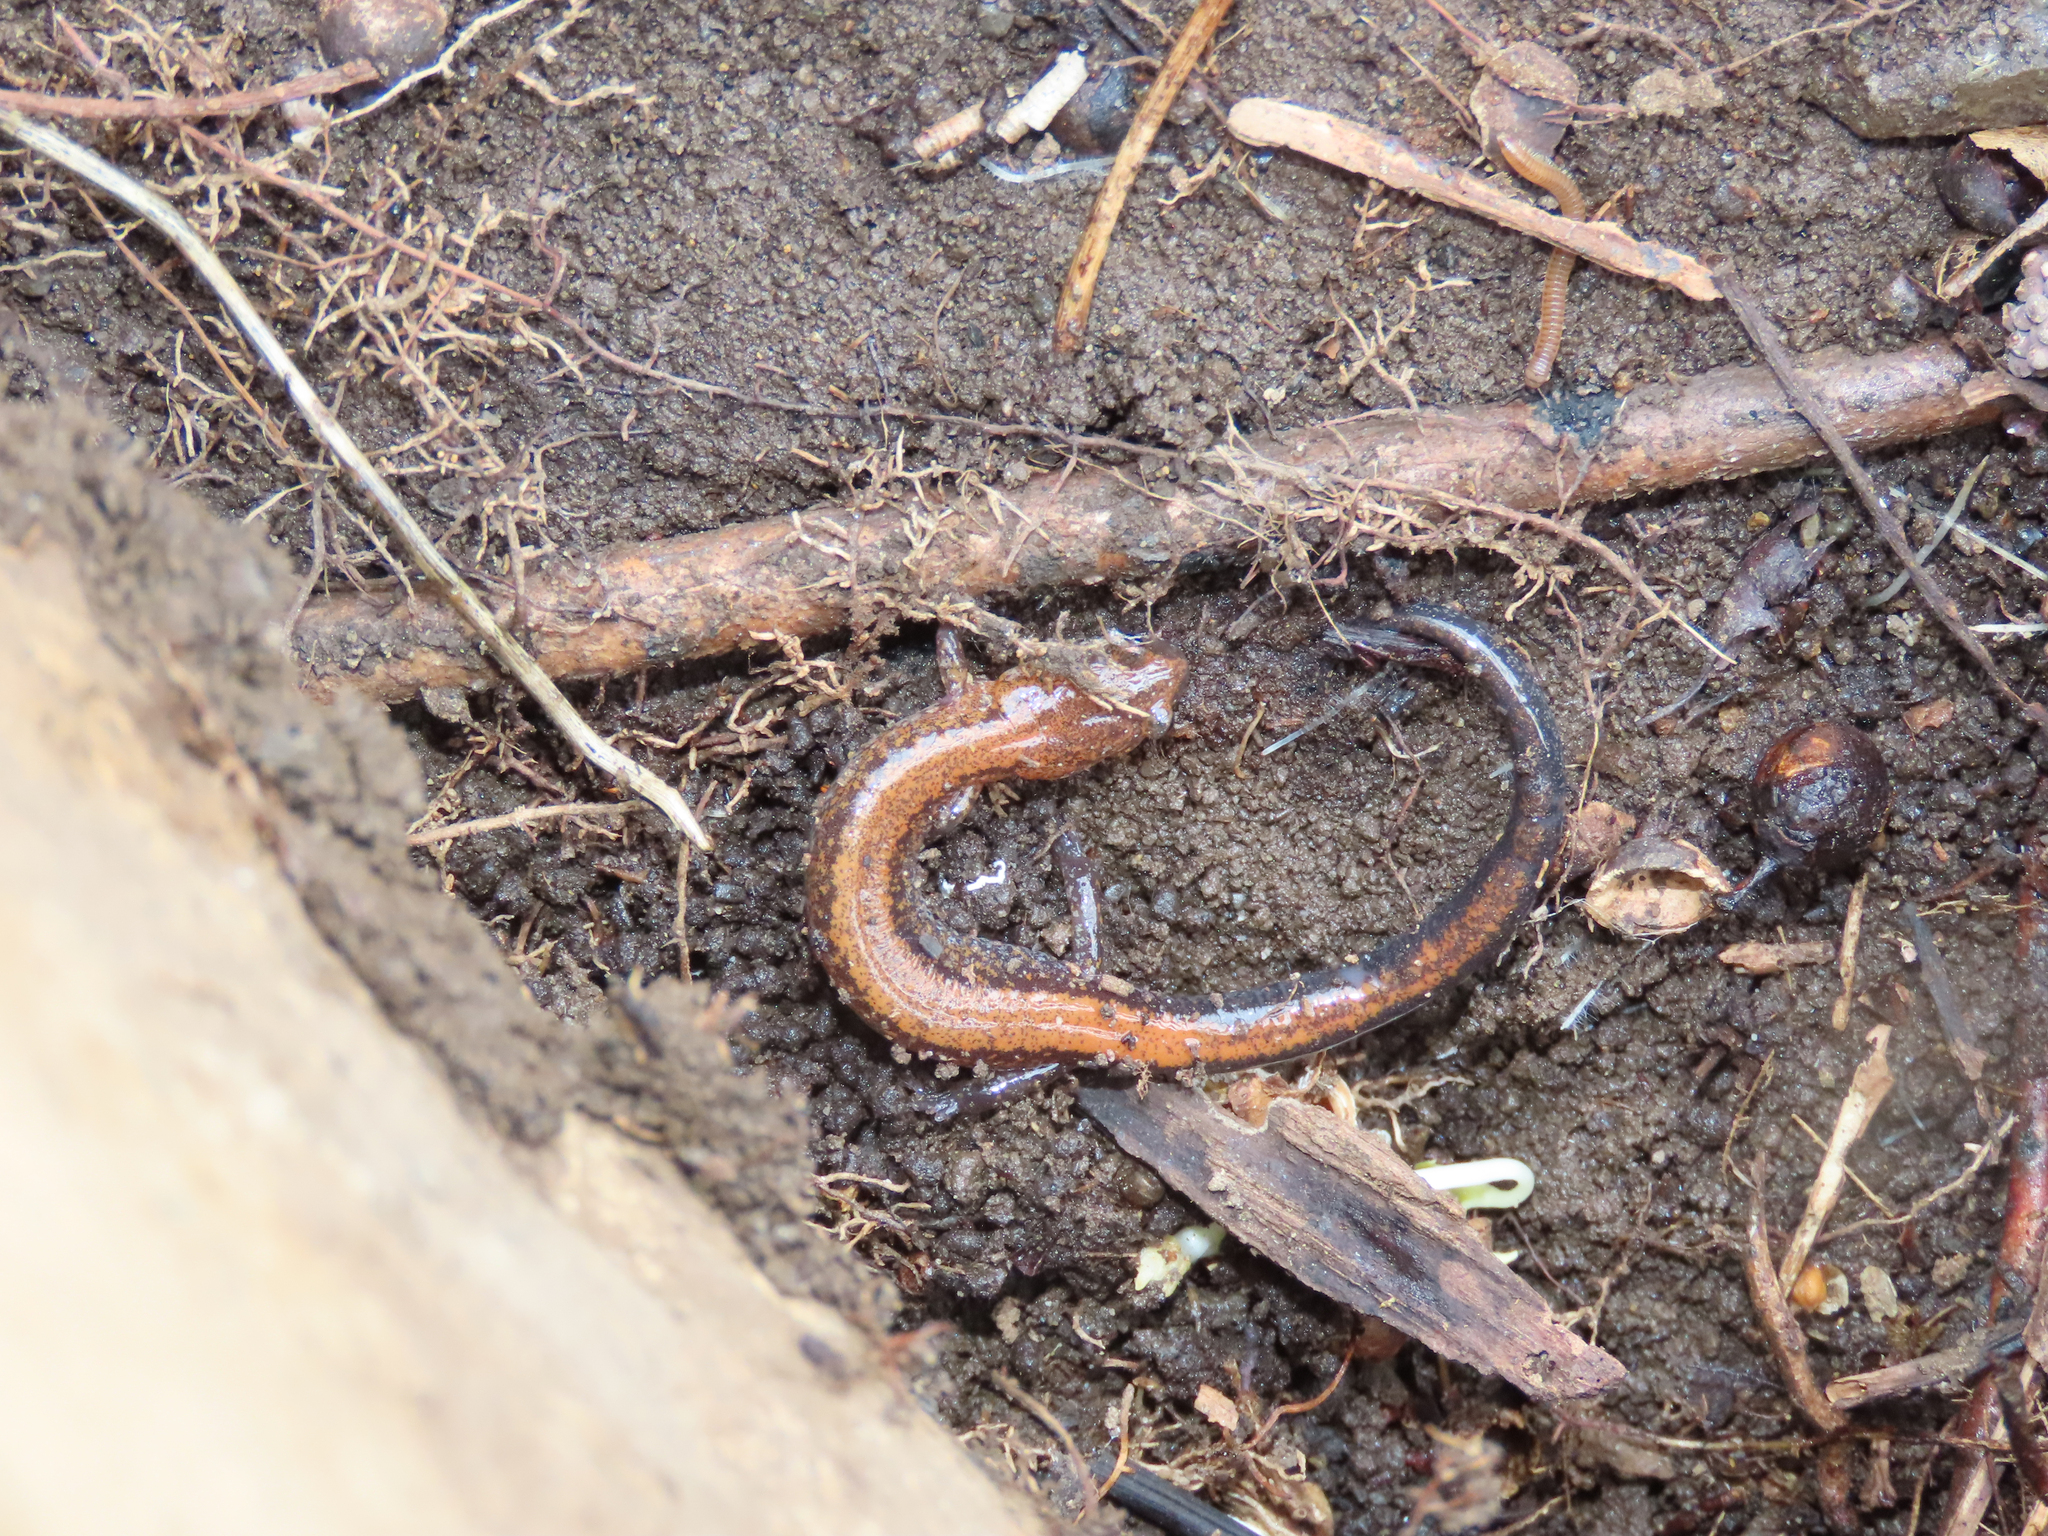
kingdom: Animalia
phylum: Chordata
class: Amphibia
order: Caudata
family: Plethodontidae
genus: Plethodon
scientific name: Plethodon cinereus
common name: Redback salamander
